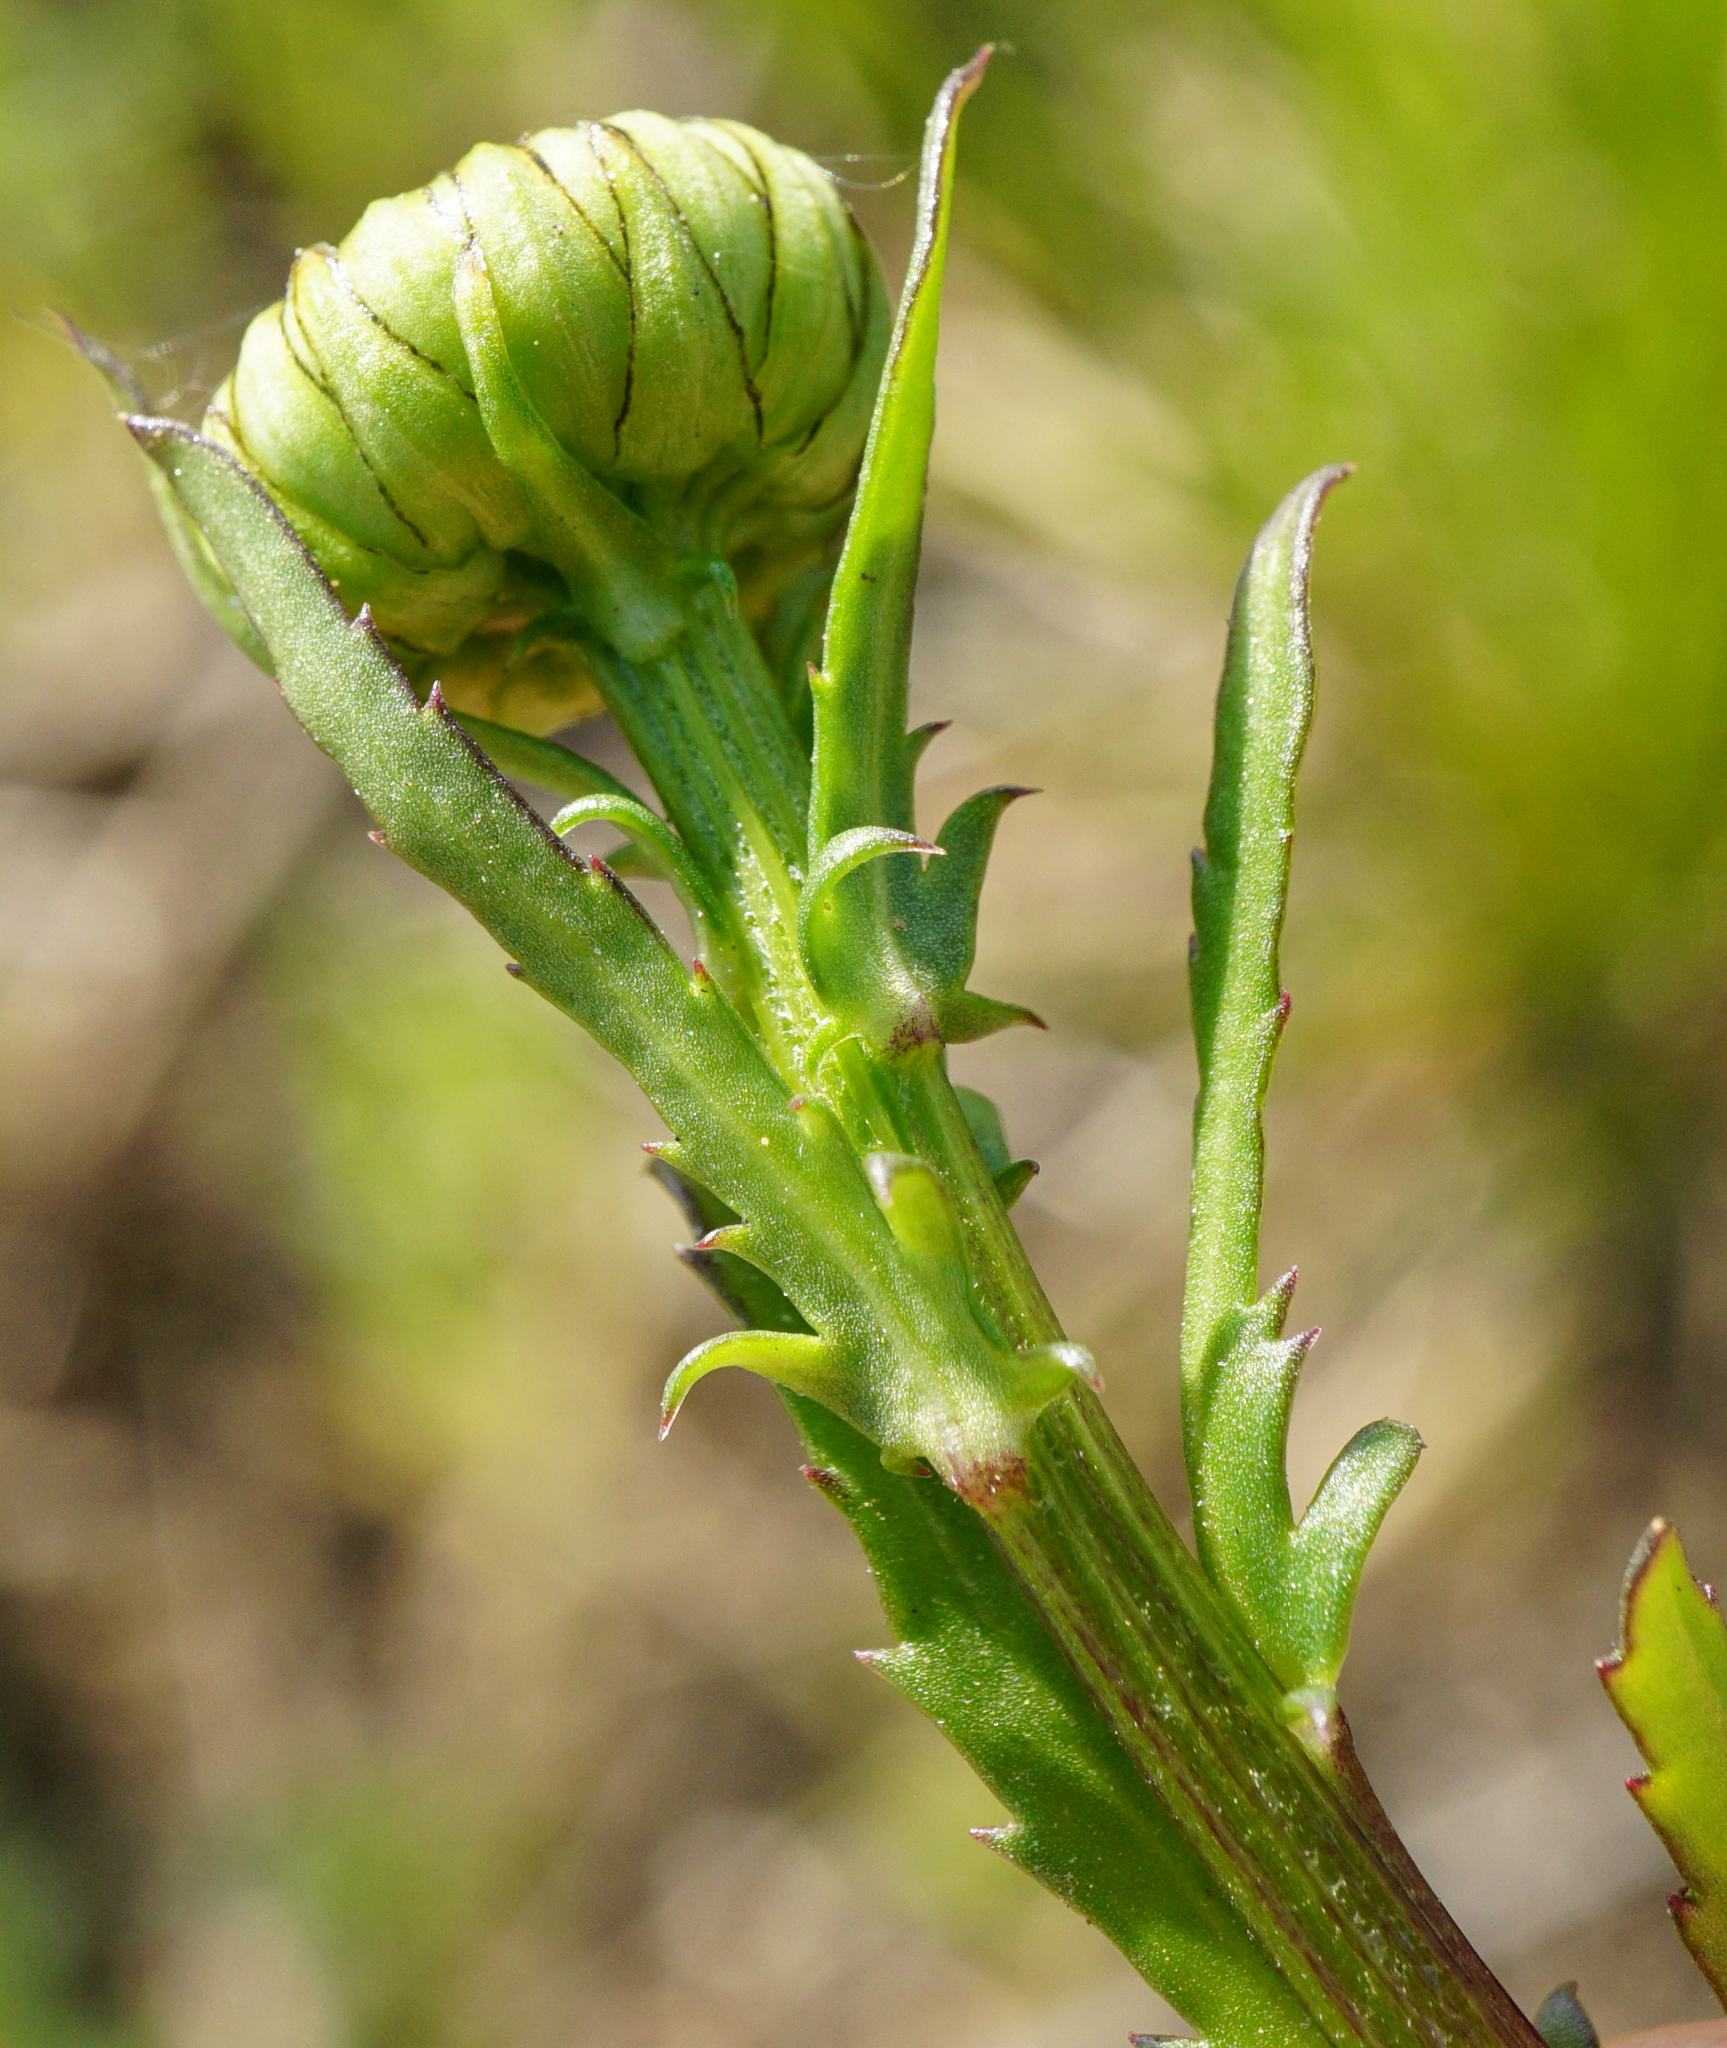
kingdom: Plantae
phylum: Tracheophyta
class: Magnoliopsida
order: Asterales
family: Asteraceae
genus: Leucanthemum
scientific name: Leucanthemum vulgare
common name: Oxeye daisy
